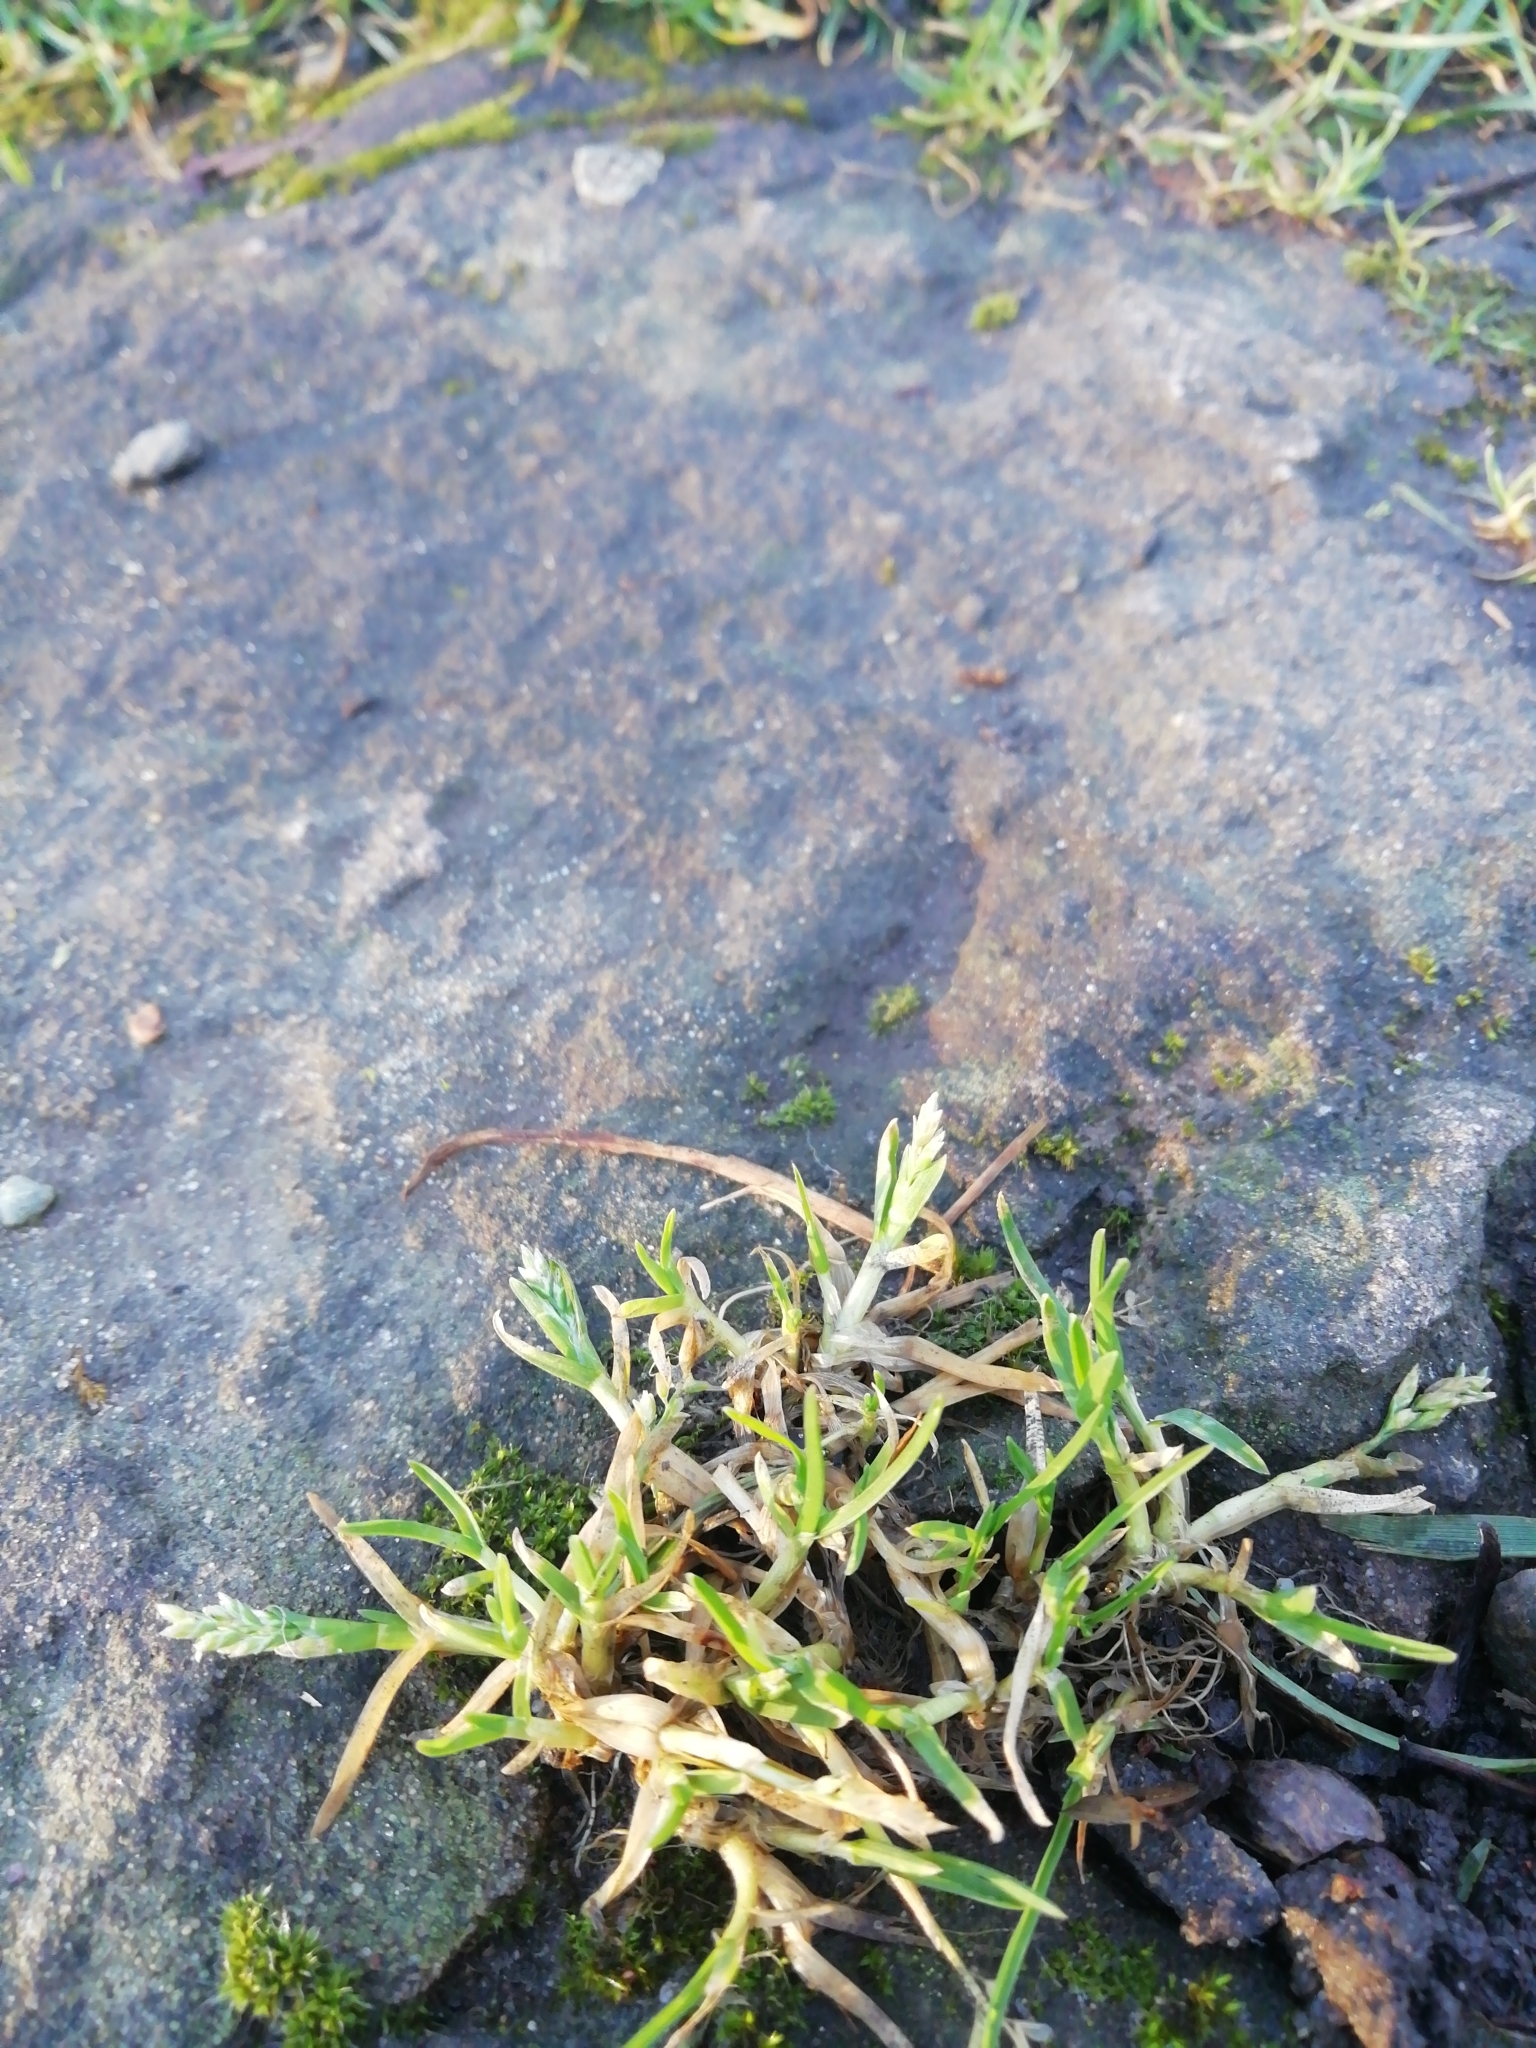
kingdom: Plantae
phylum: Tracheophyta
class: Liliopsida
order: Poales
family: Poaceae
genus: Poa
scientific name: Poa annua
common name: Annual bluegrass
